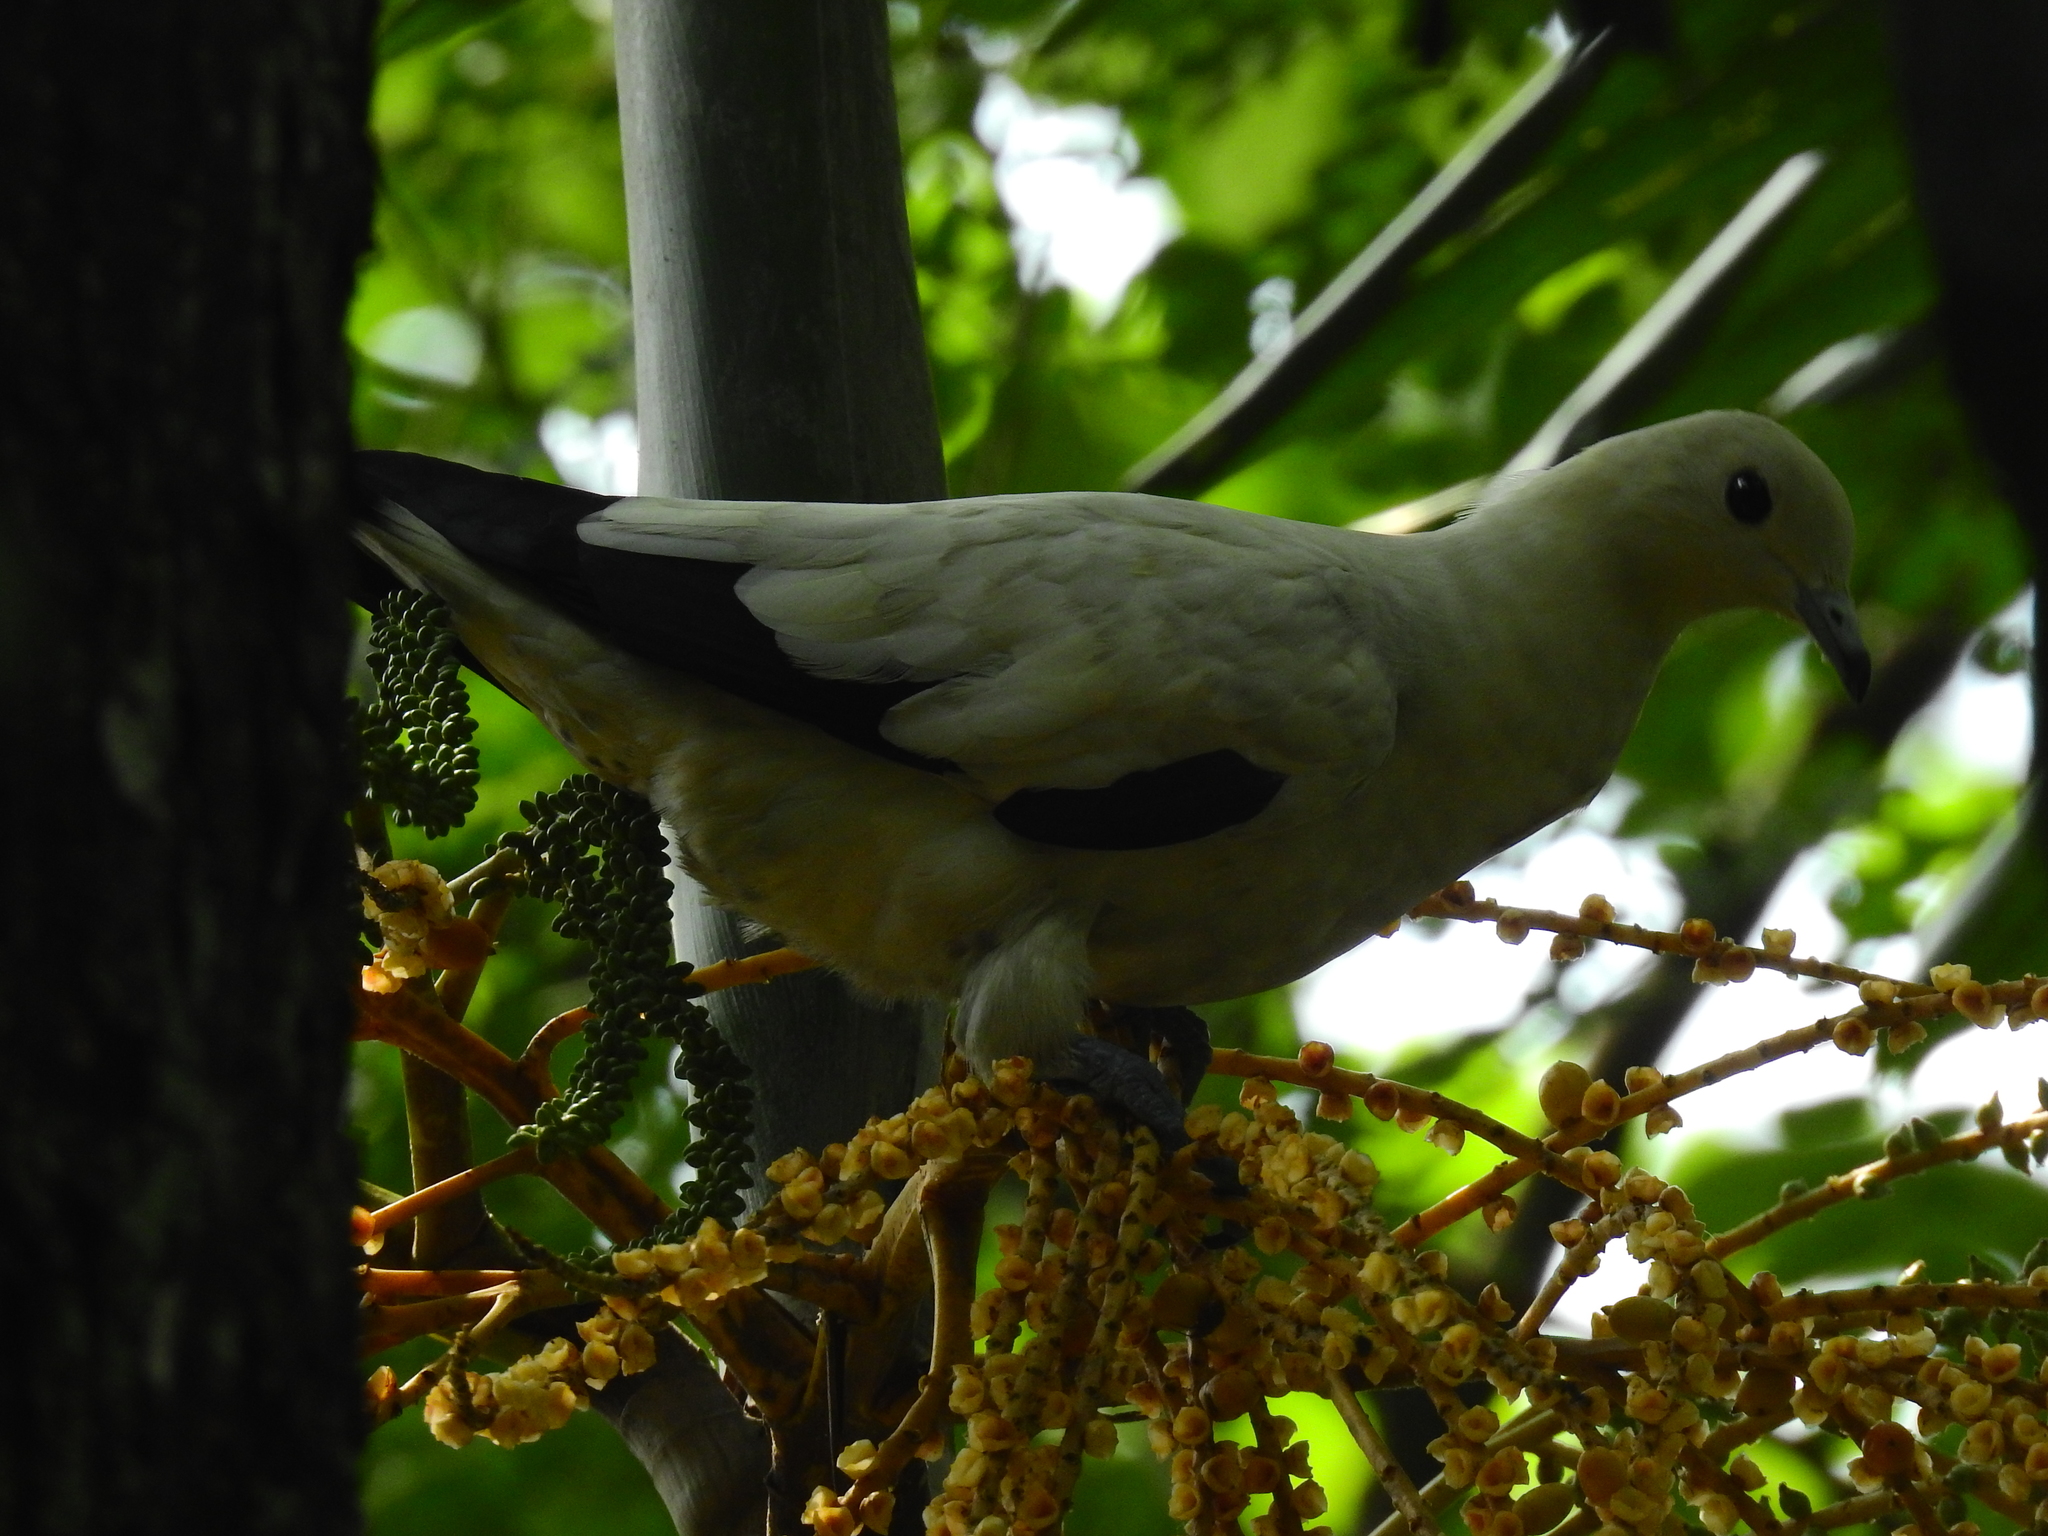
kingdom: Animalia
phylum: Chordata
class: Aves
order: Columbiformes
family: Columbidae
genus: Ducula
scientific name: Ducula bicolor
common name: Pied imperial pigeon
